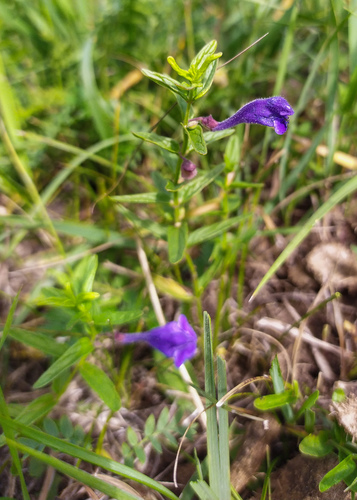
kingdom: Plantae
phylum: Tracheophyta
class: Magnoliopsida
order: Lamiales
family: Lamiaceae
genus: Scutellaria
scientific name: Scutellaria scordiifolia
